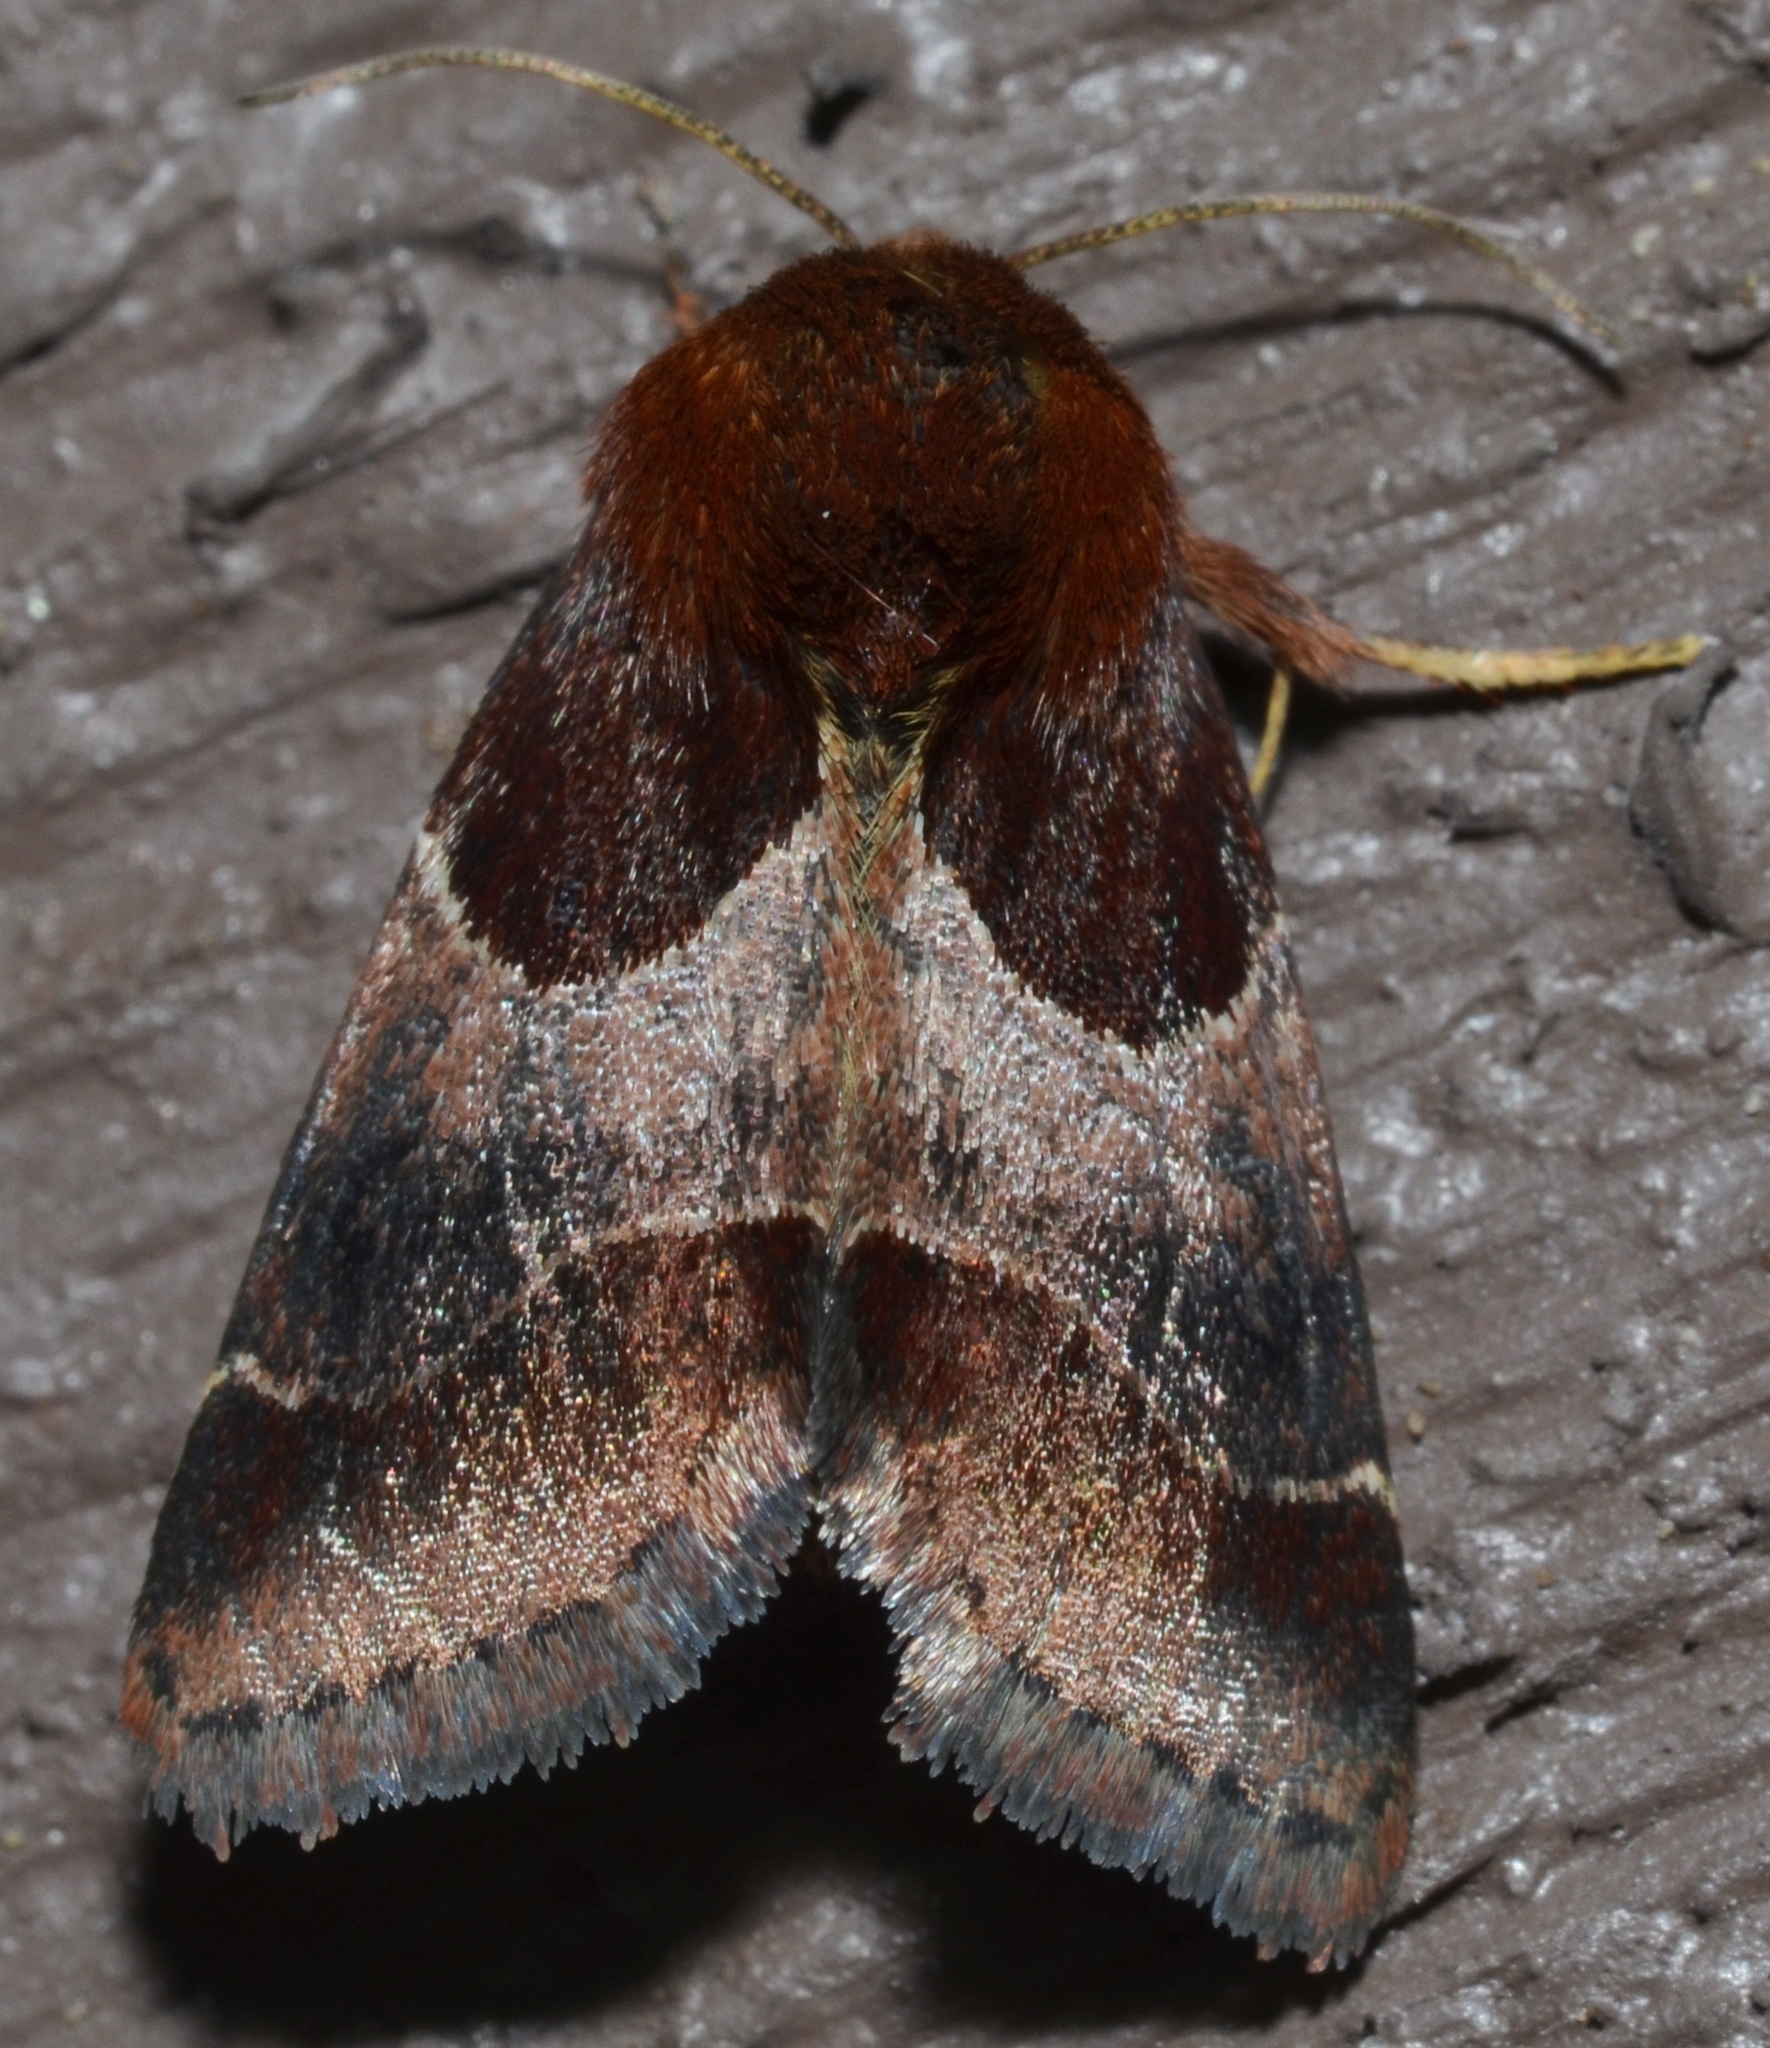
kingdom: Animalia
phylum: Arthropoda
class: Insecta
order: Lepidoptera
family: Noctuidae
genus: Schinia
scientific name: Schinia arcigera
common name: Arcigera flower moth
